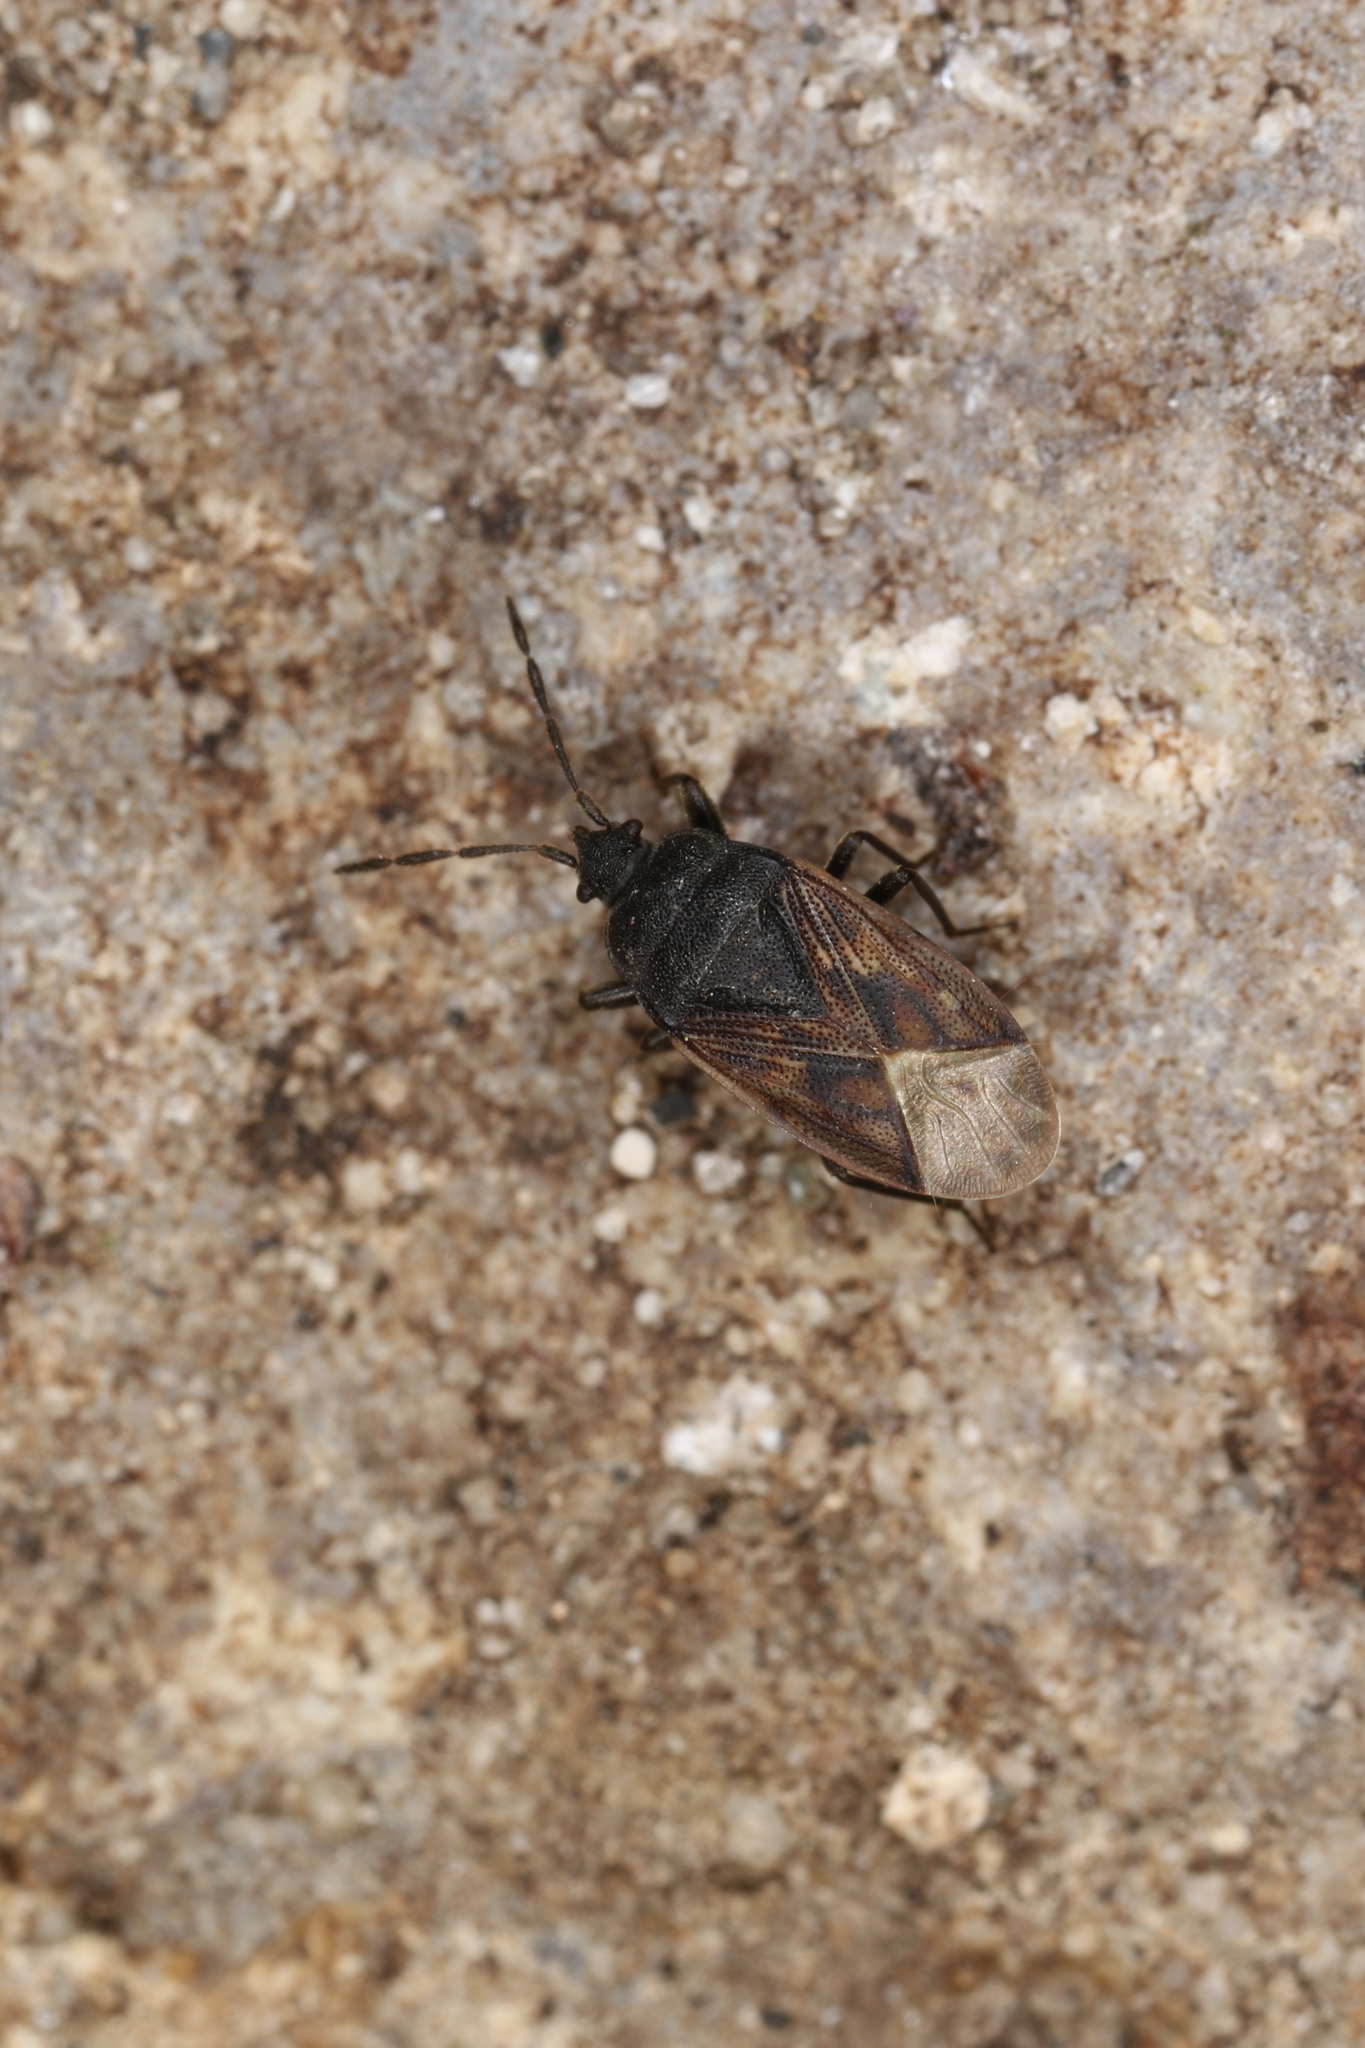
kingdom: Animalia
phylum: Arthropoda
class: Insecta
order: Hemiptera
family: Rhyparochromidae
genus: Drymus
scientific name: Drymus sylvaticus
